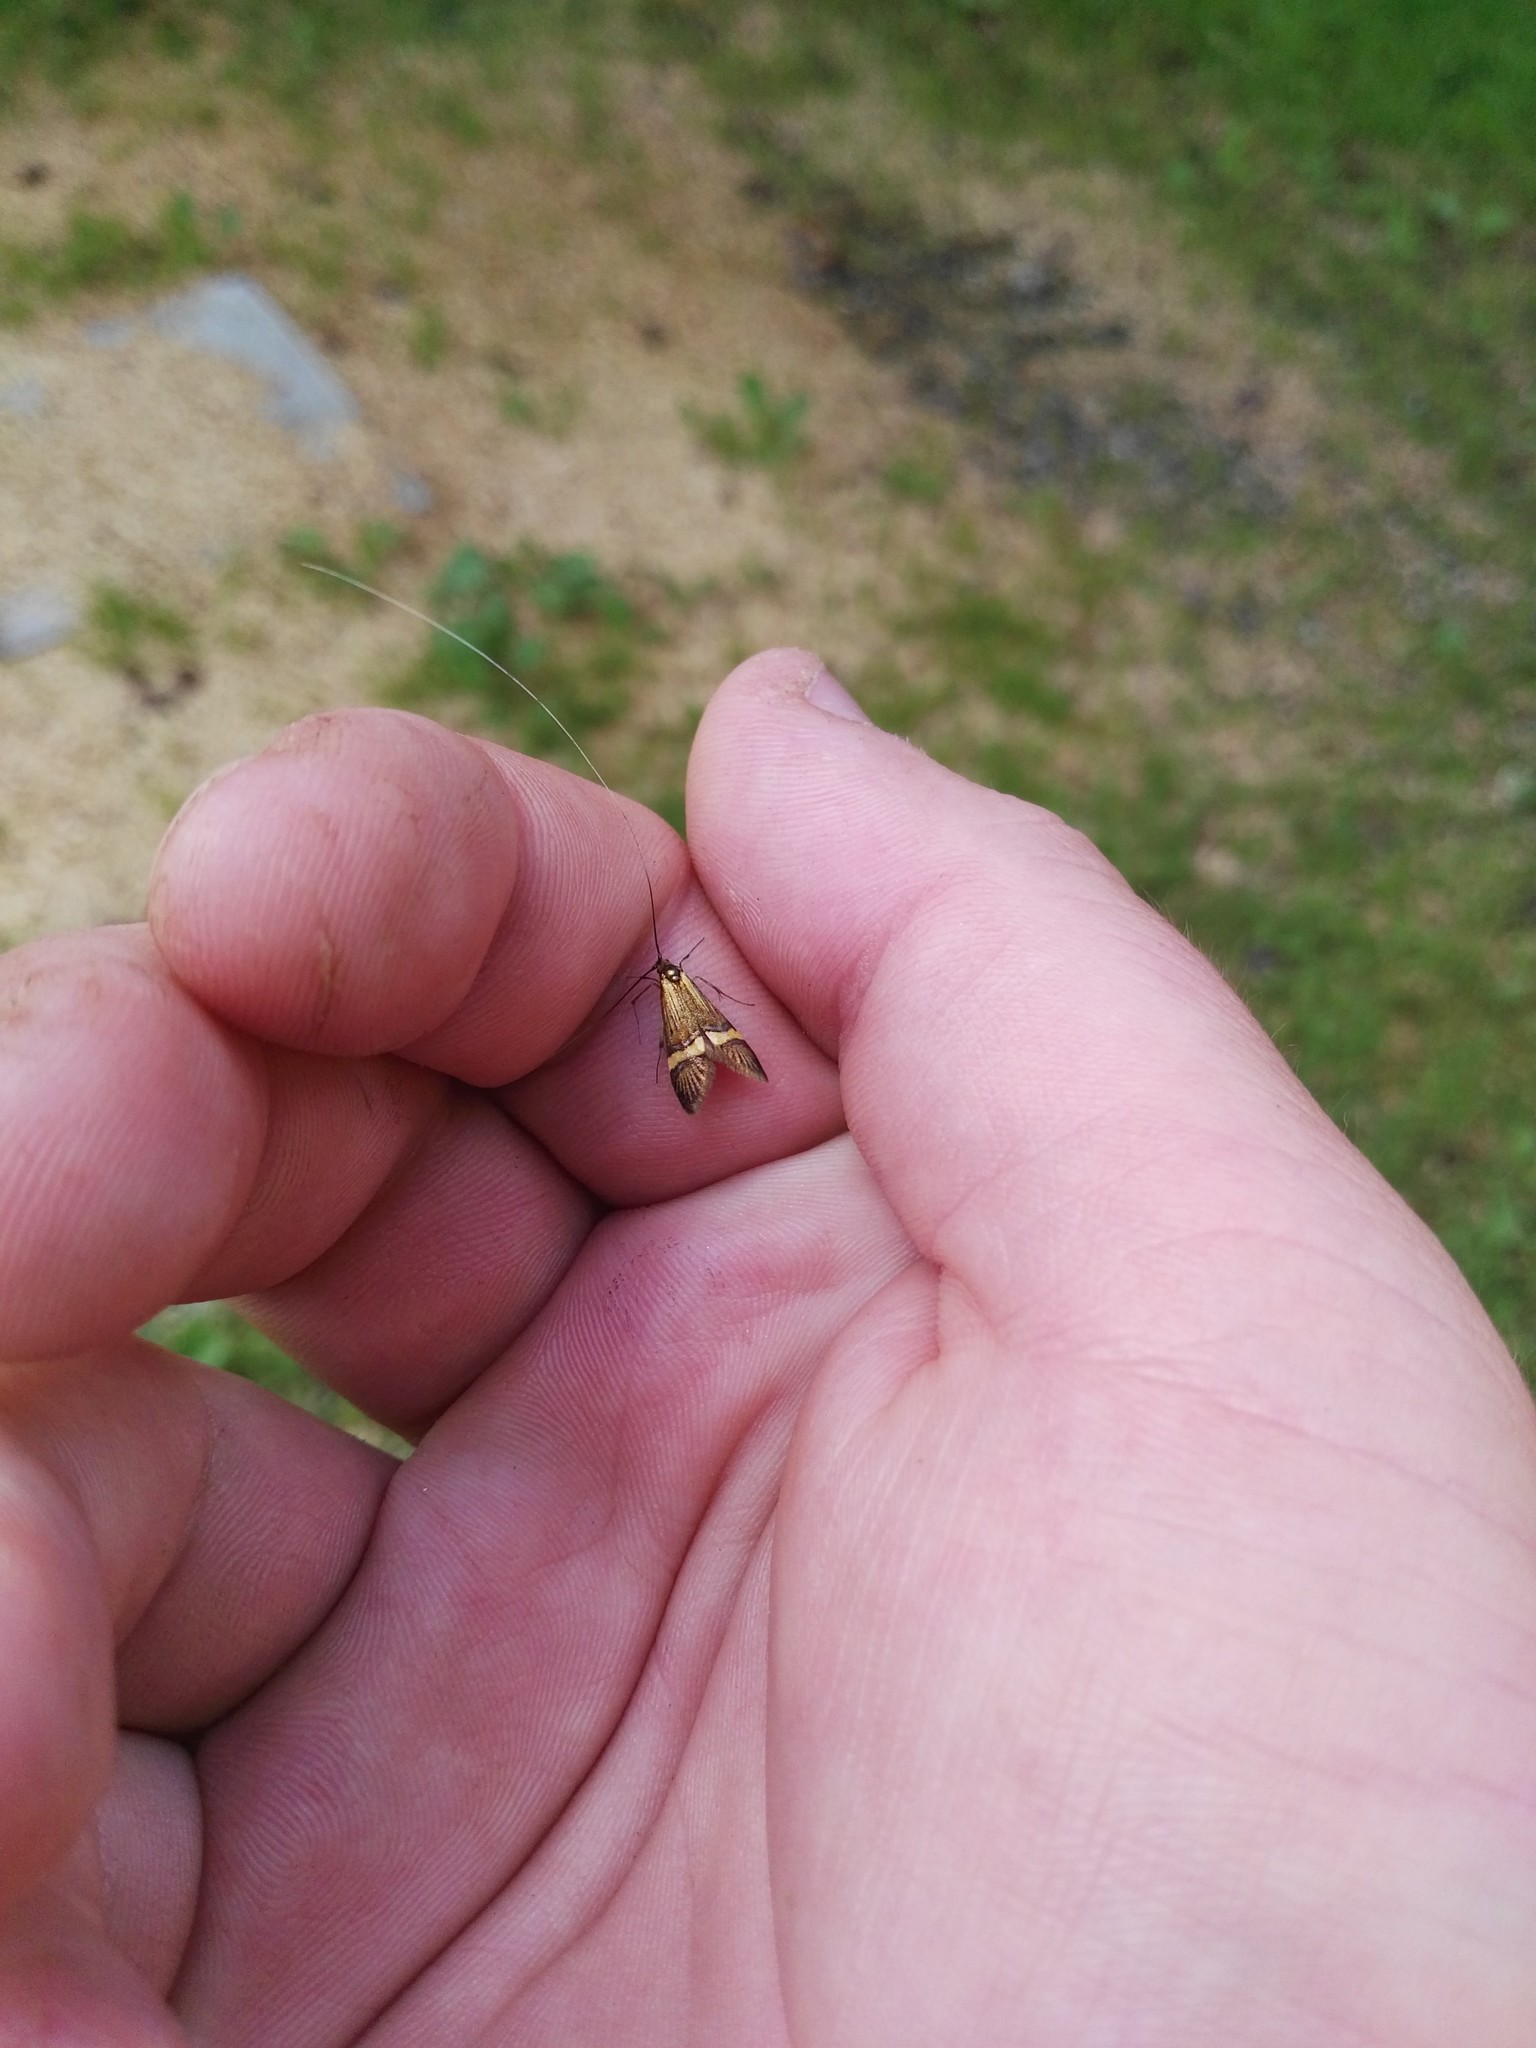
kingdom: Animalia
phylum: Arthropoda
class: Insecta
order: Lepidoptera
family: Adelidae
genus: Nemophora
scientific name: Nemophora
